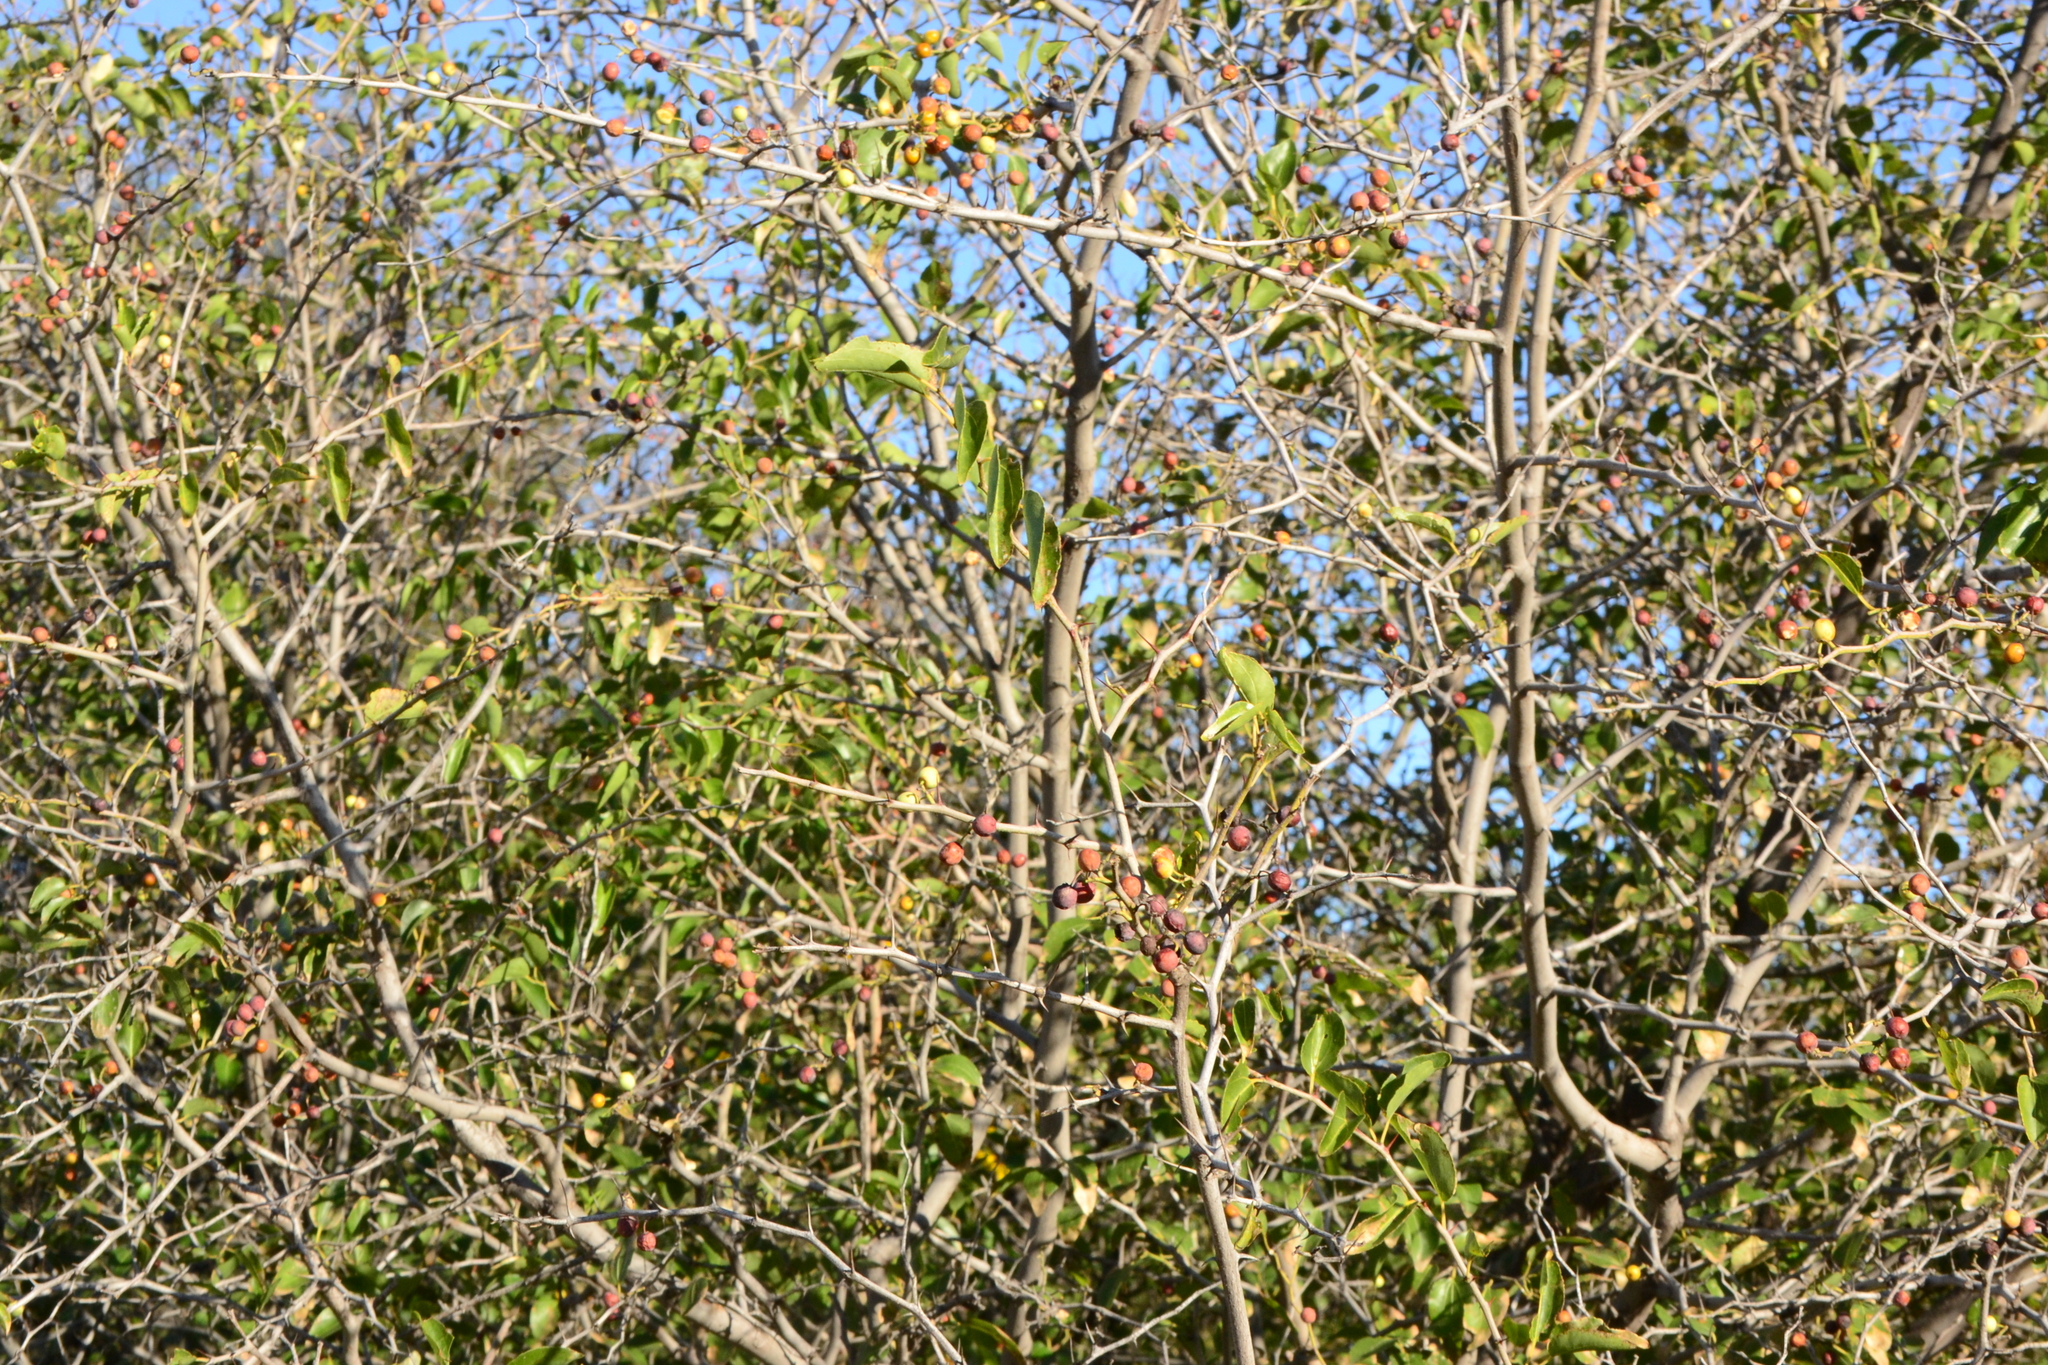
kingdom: Plantae
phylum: Tracheophyta
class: Magnoliopsida
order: Rosales
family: Rhamnaceae
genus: Ziziphus
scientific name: Ziziphus mucronata
